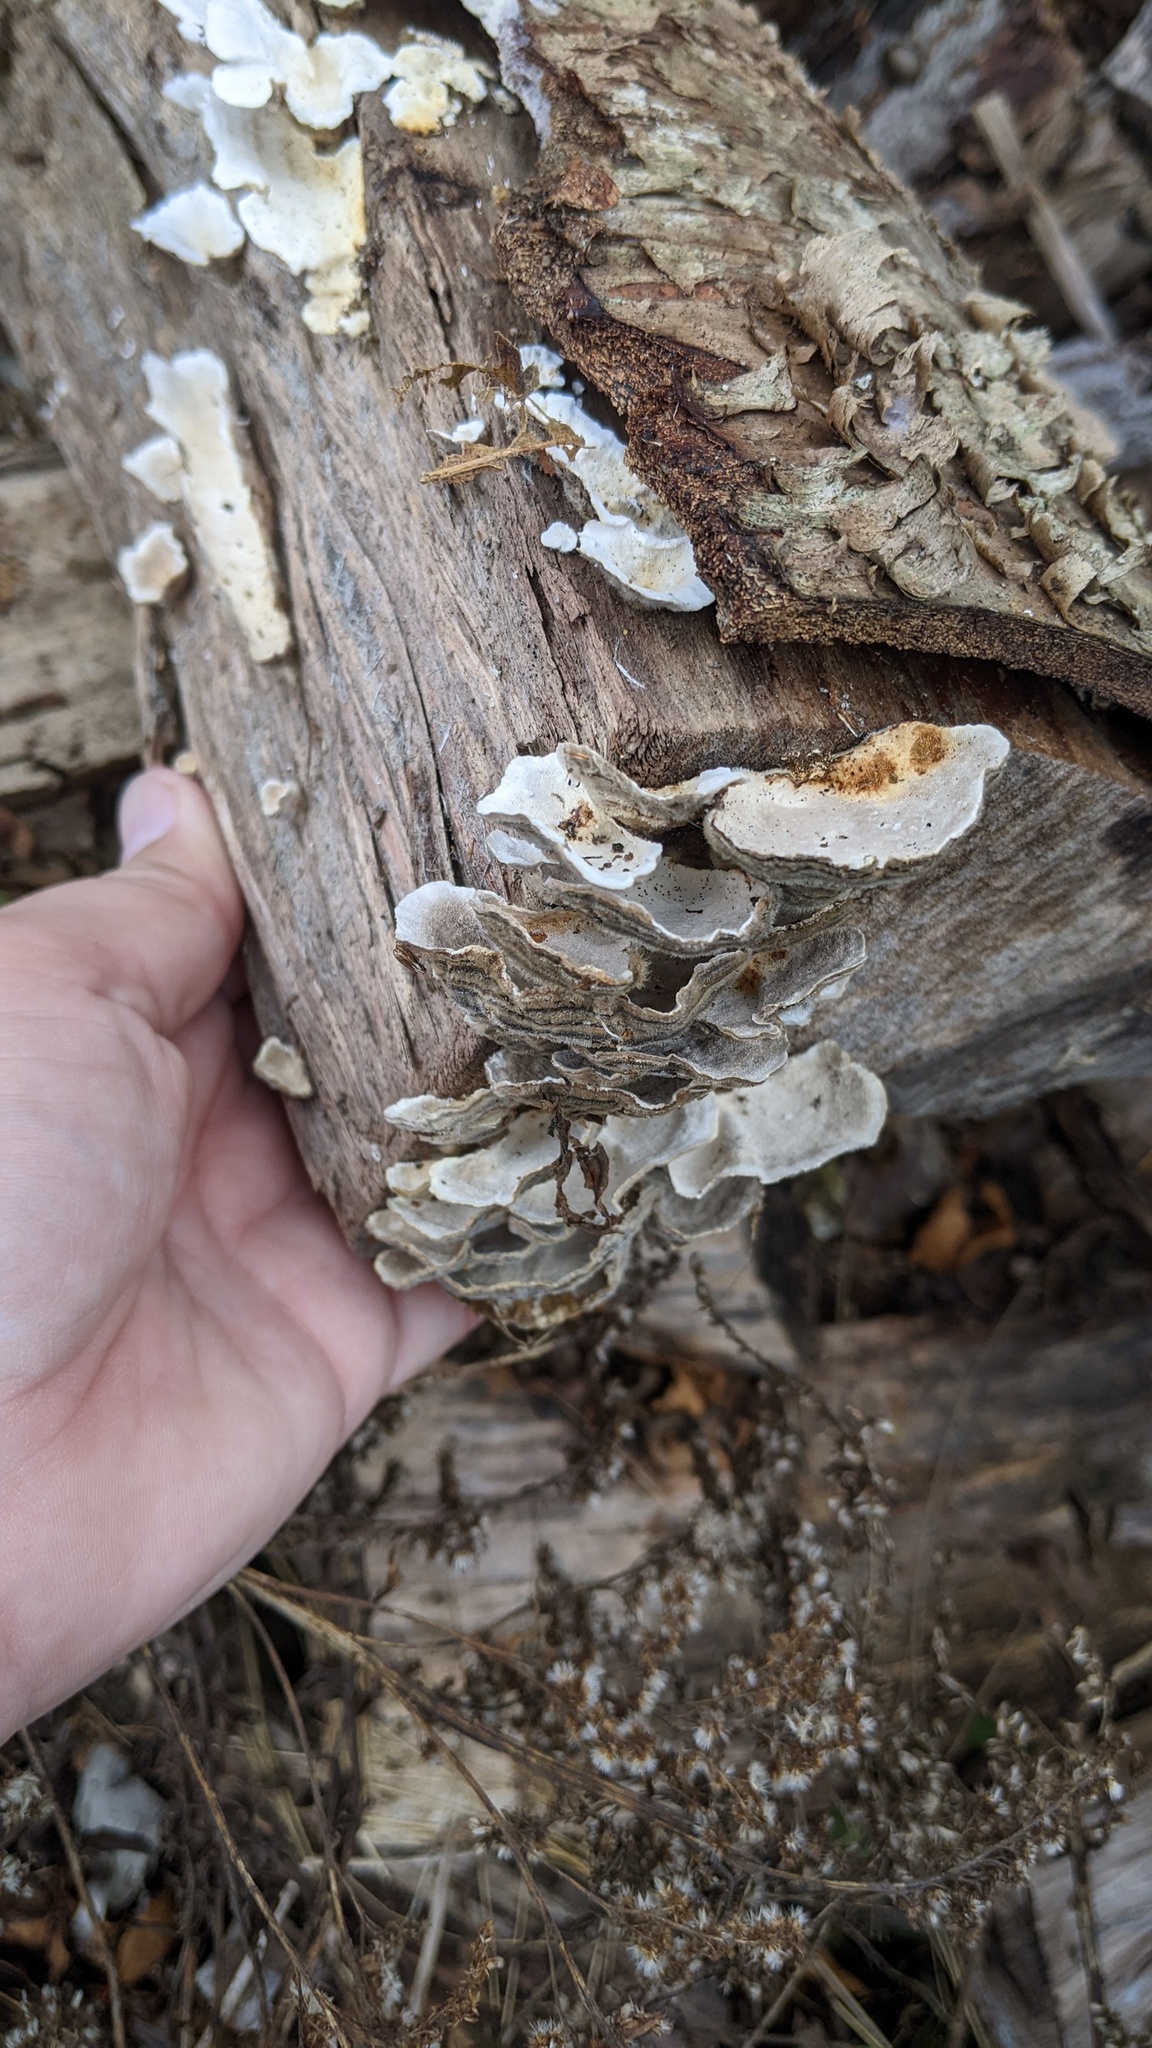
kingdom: Fungi
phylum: Basidiomycota
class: Agaricomycetes
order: Polyporales
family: Polyporaceae
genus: Trametes
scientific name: Trametes versicolor
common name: Turkeytail
